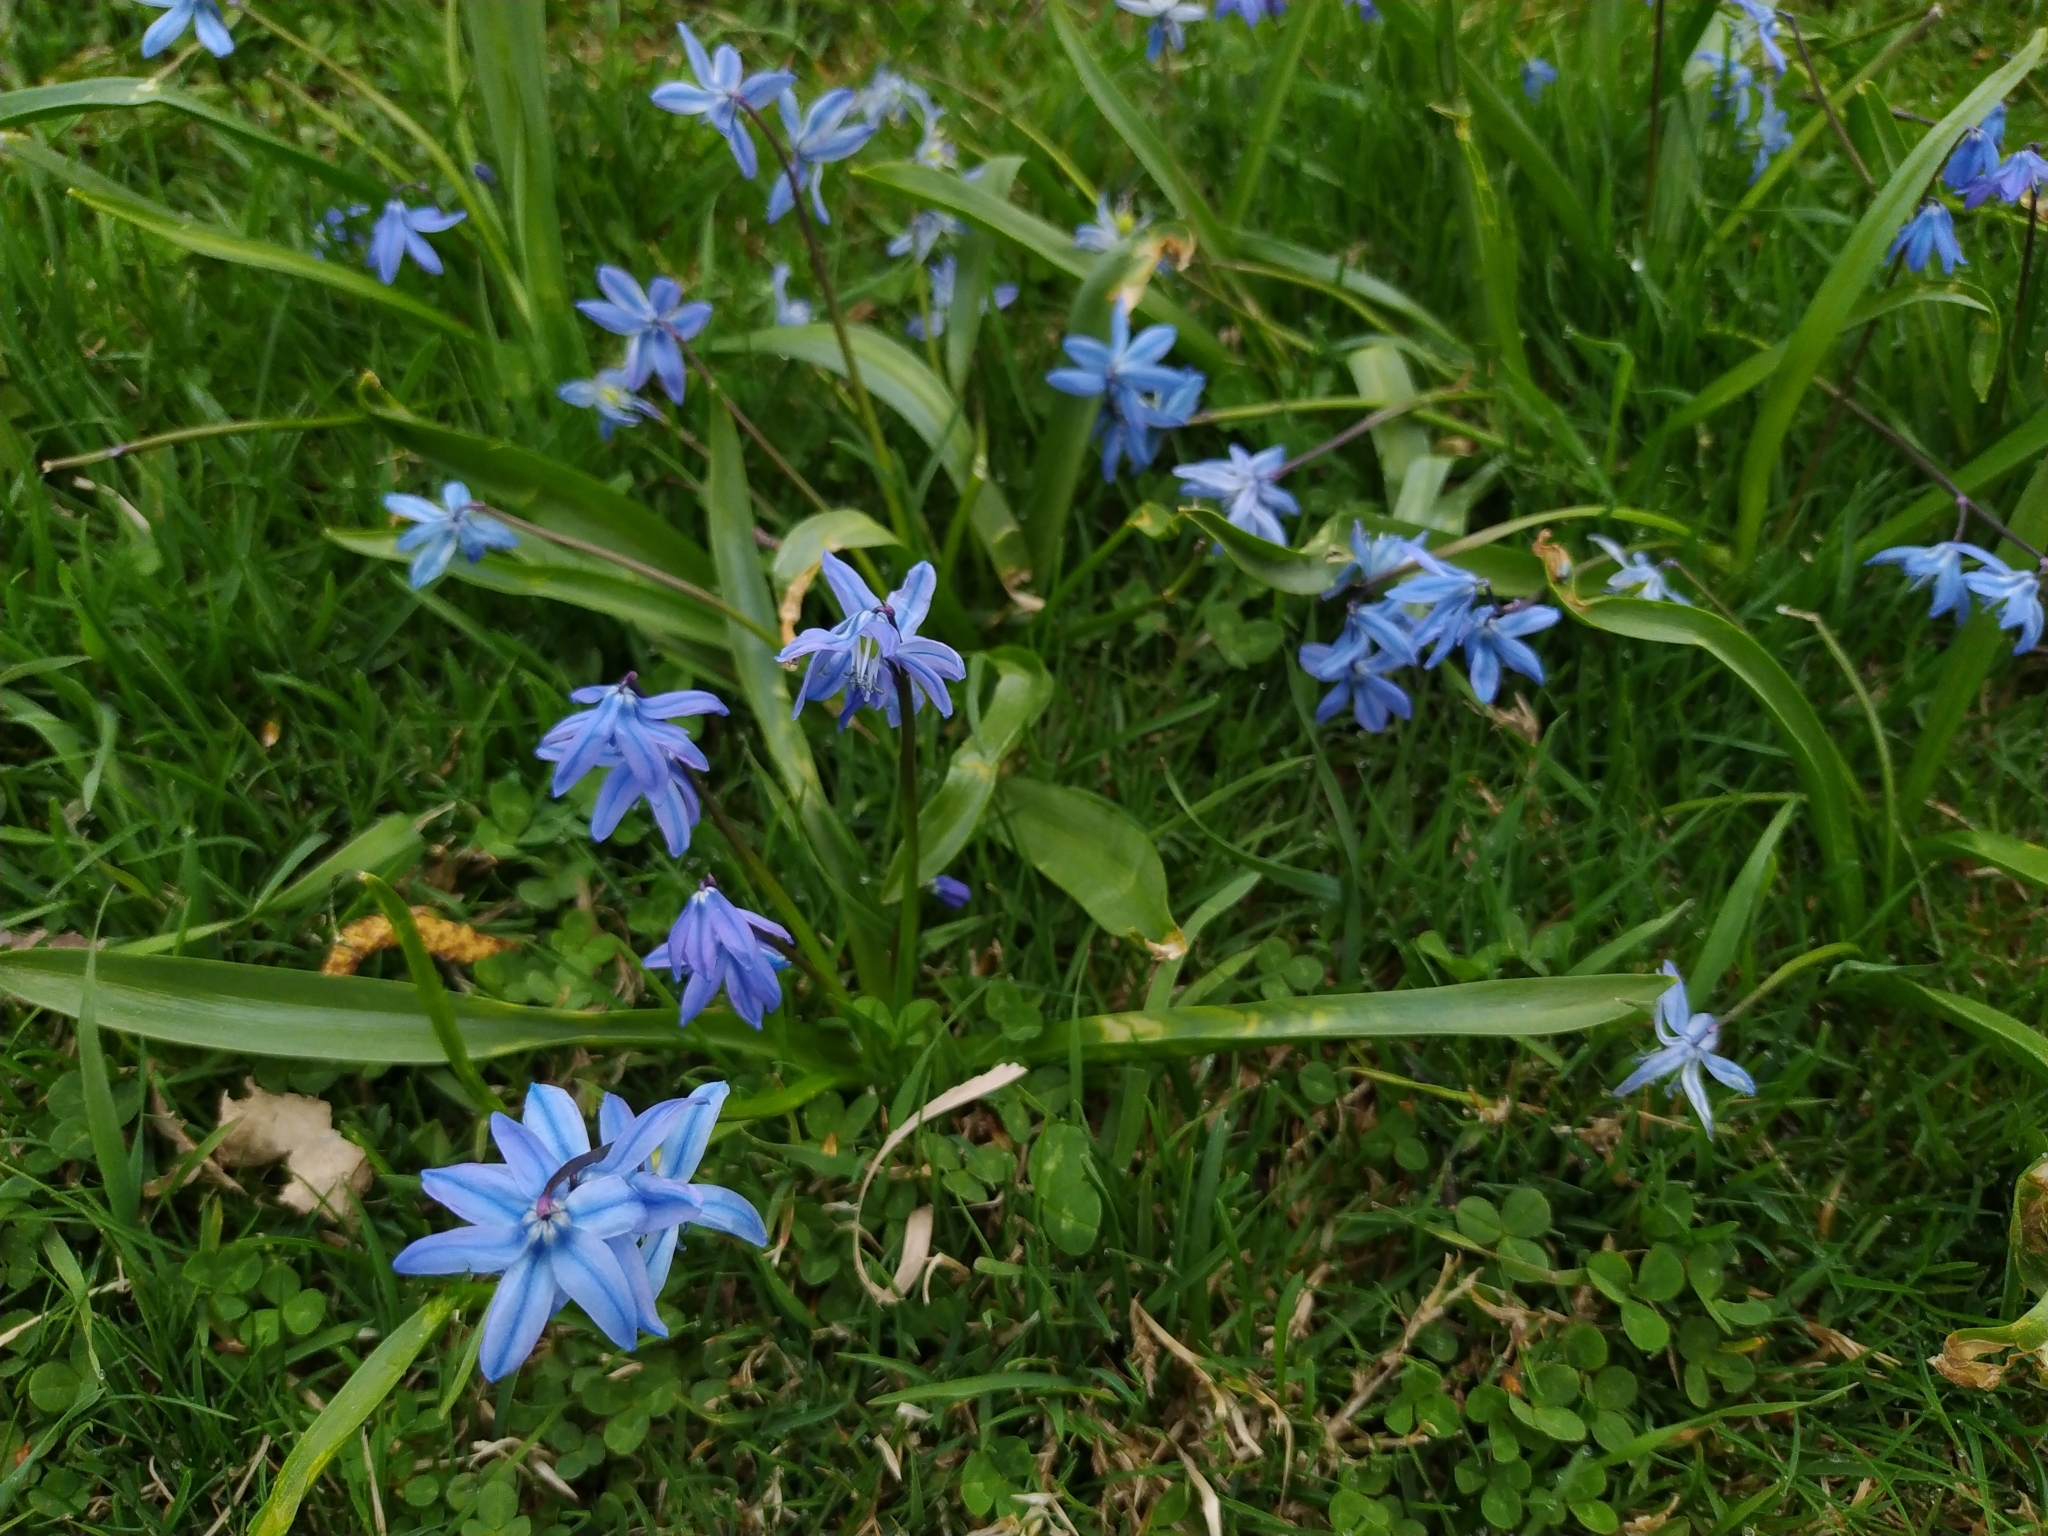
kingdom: Plantae
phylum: Tracheophyta
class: Liliopsida
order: Asparagales
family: Asparagaceae
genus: Scilla
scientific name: Scilla siberica
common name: Siberian squill
